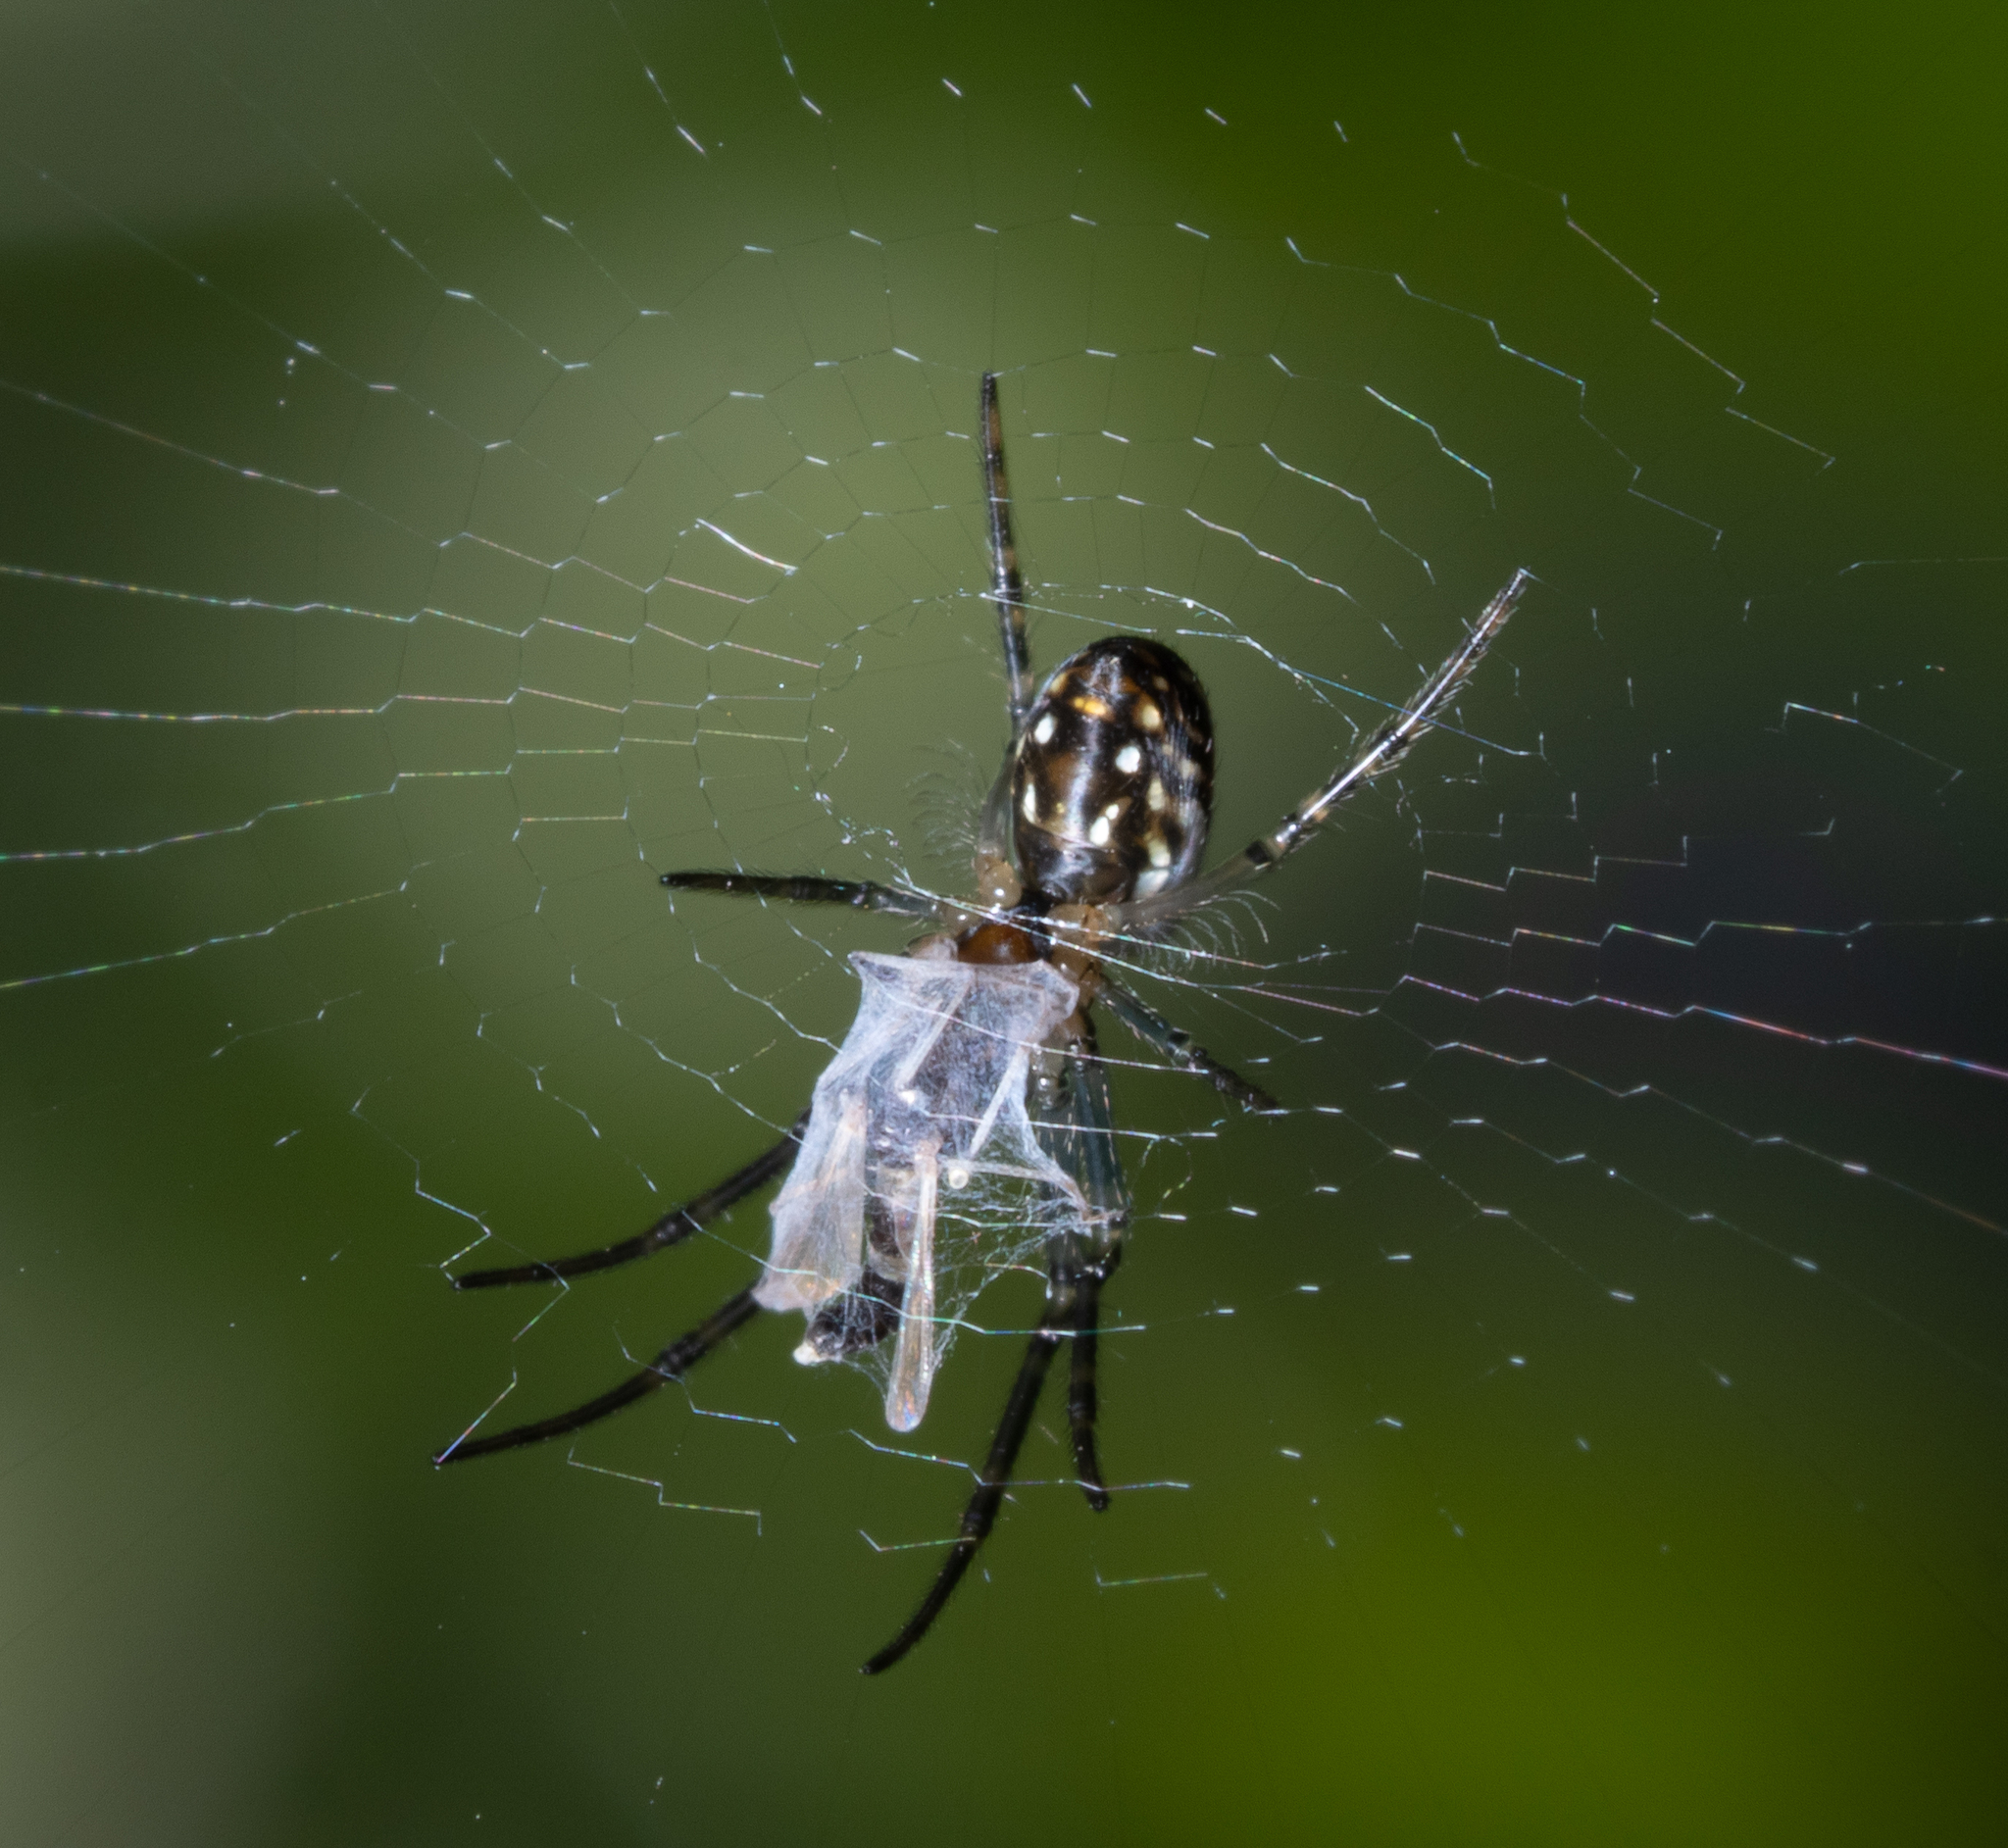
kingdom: Animalia
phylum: Arthropoda
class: Arachnida
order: Araneae
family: Tetragnathidae
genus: Leucauge
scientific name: Leucauge dromedaria
